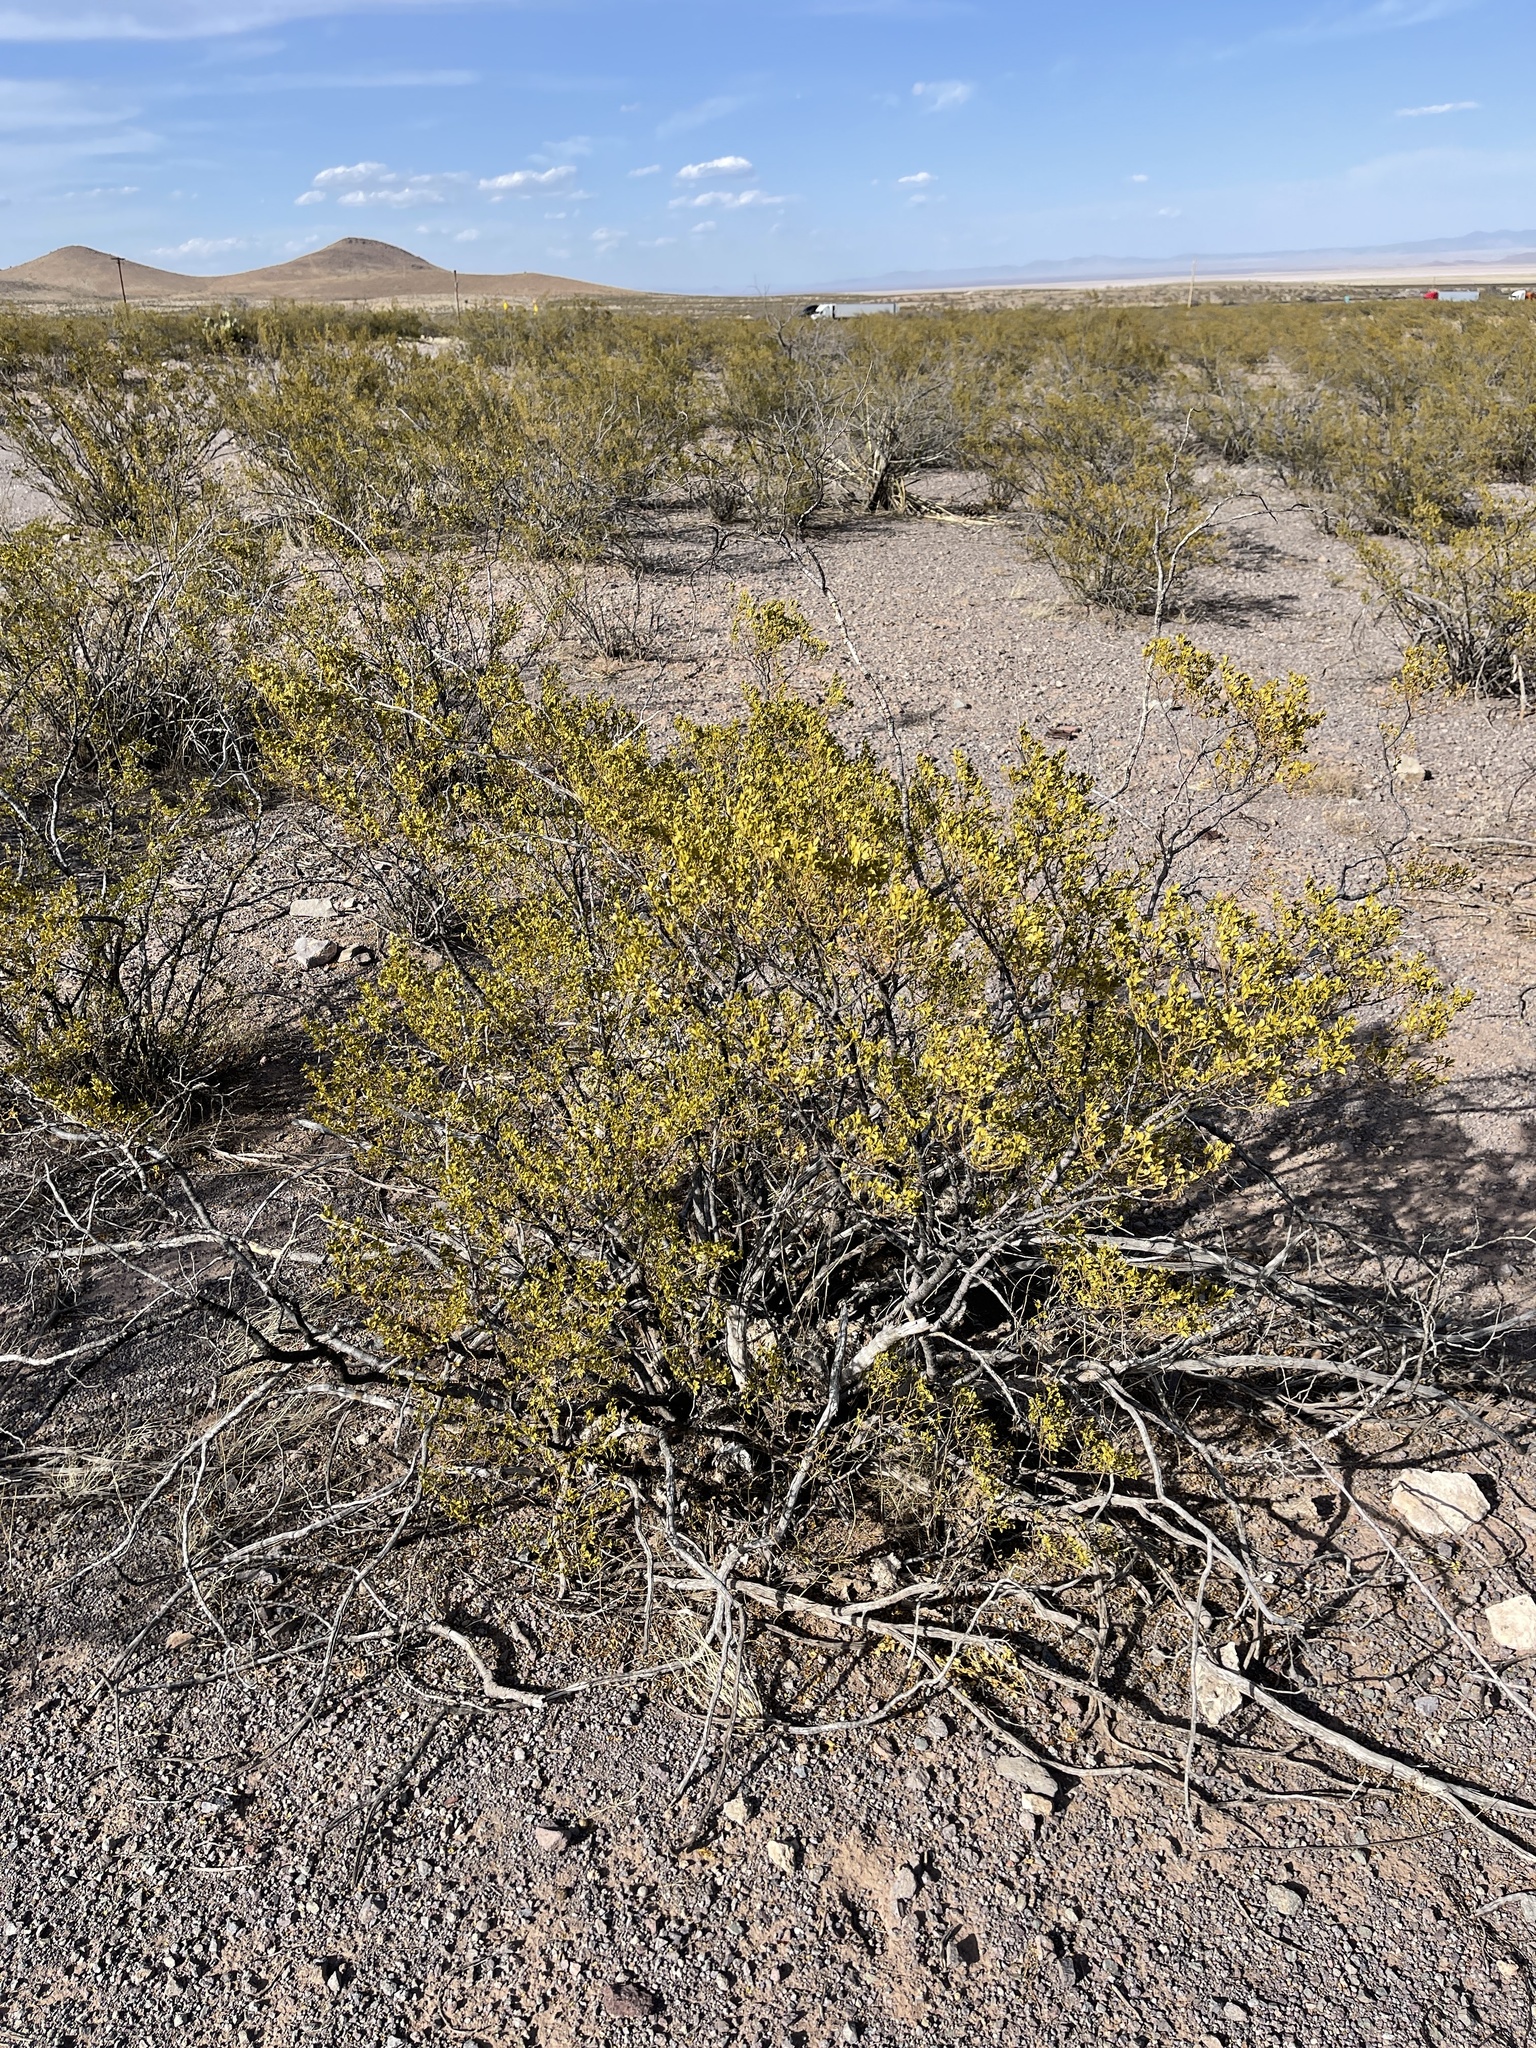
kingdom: Plantae
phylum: Tracheophyta
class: Magnoliopsida
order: Zygophyllales
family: Zygophyllaceae
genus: Larrea
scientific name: Larrea tridentata
